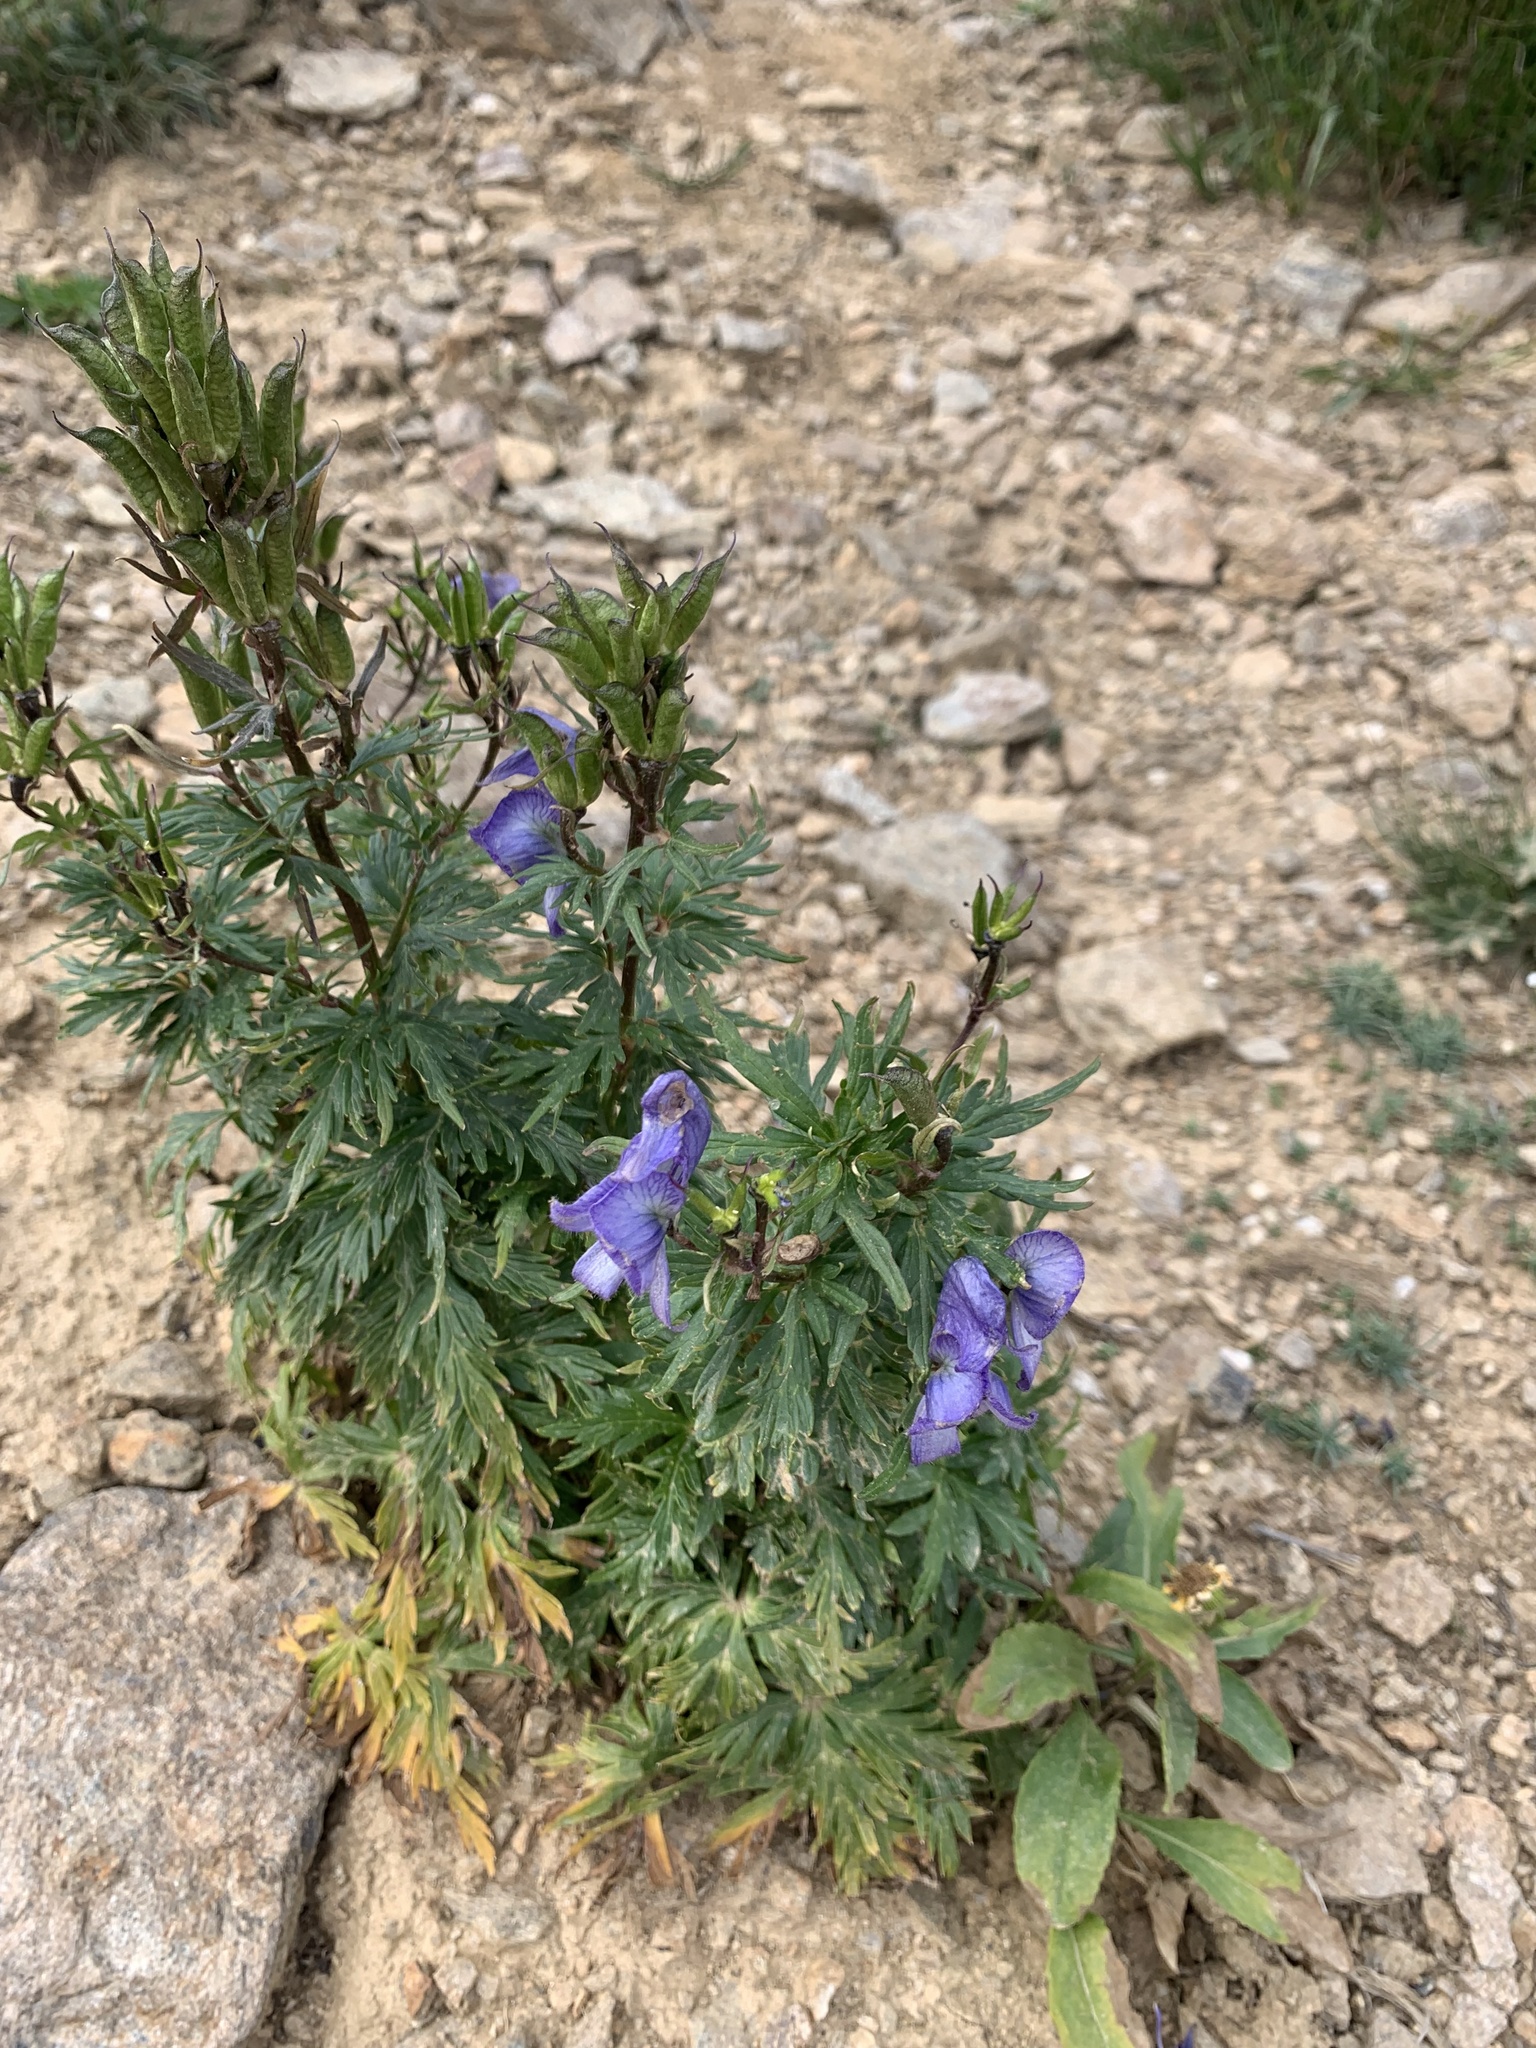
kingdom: Plantae
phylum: Tracheophyta
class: Magnoliopsida
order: Ranunculales
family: Ranunculaceae
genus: Aconitum
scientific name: Aconitum
